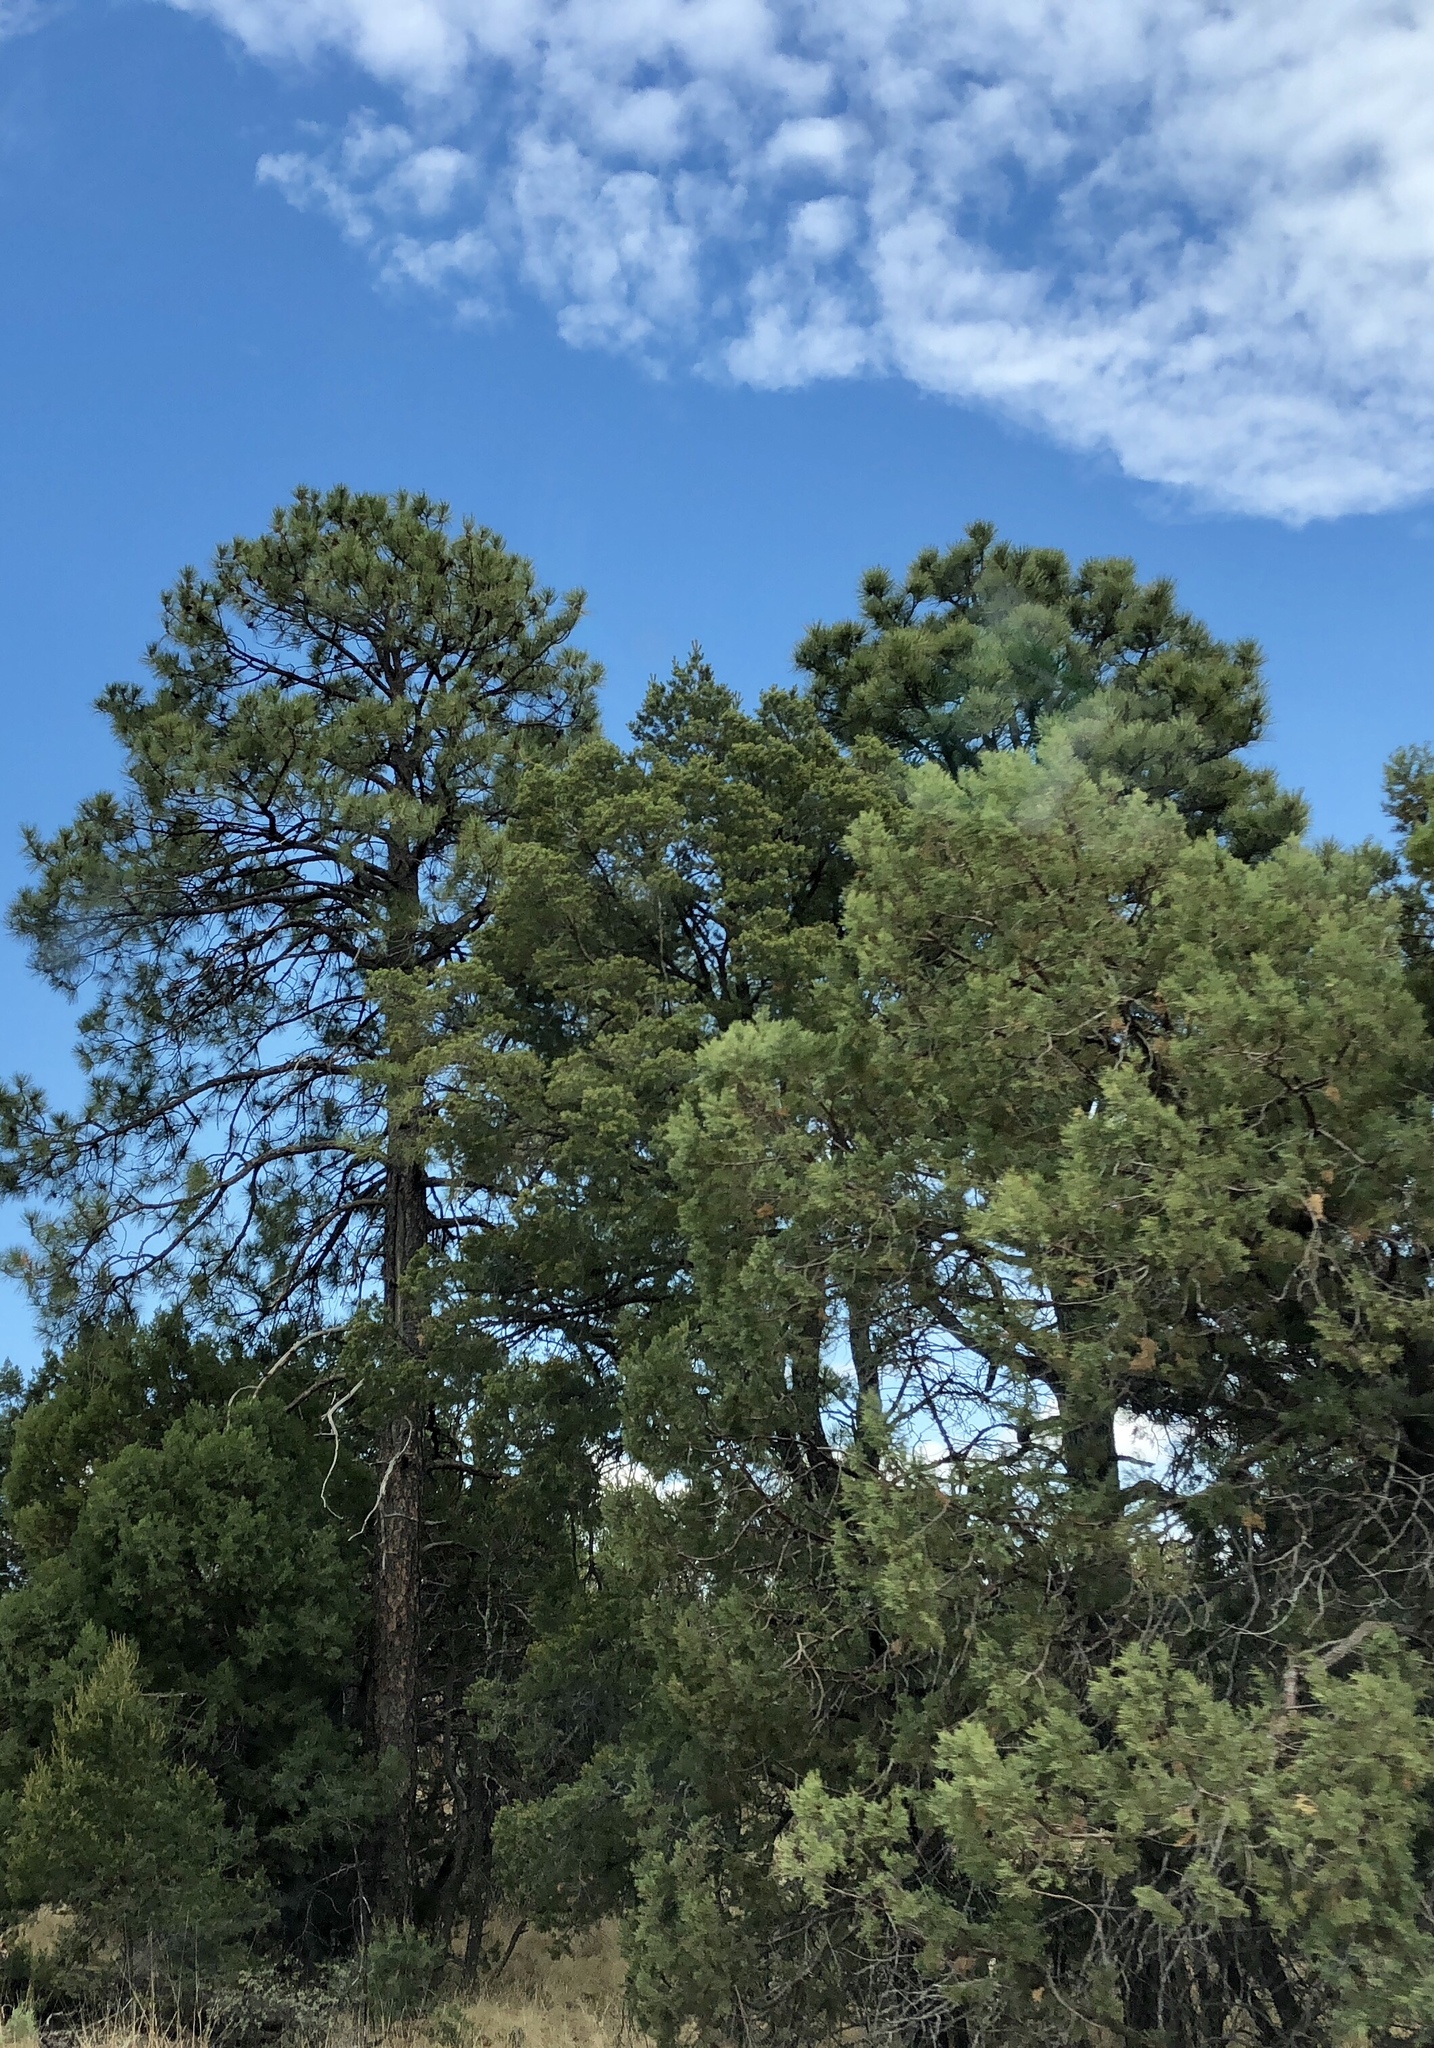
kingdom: Plantae
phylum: Tracheophyta
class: Pinopsida
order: Pinales
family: Pinaceae
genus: Pinus
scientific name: Pinus ponderosa
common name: Western yellow-pine
